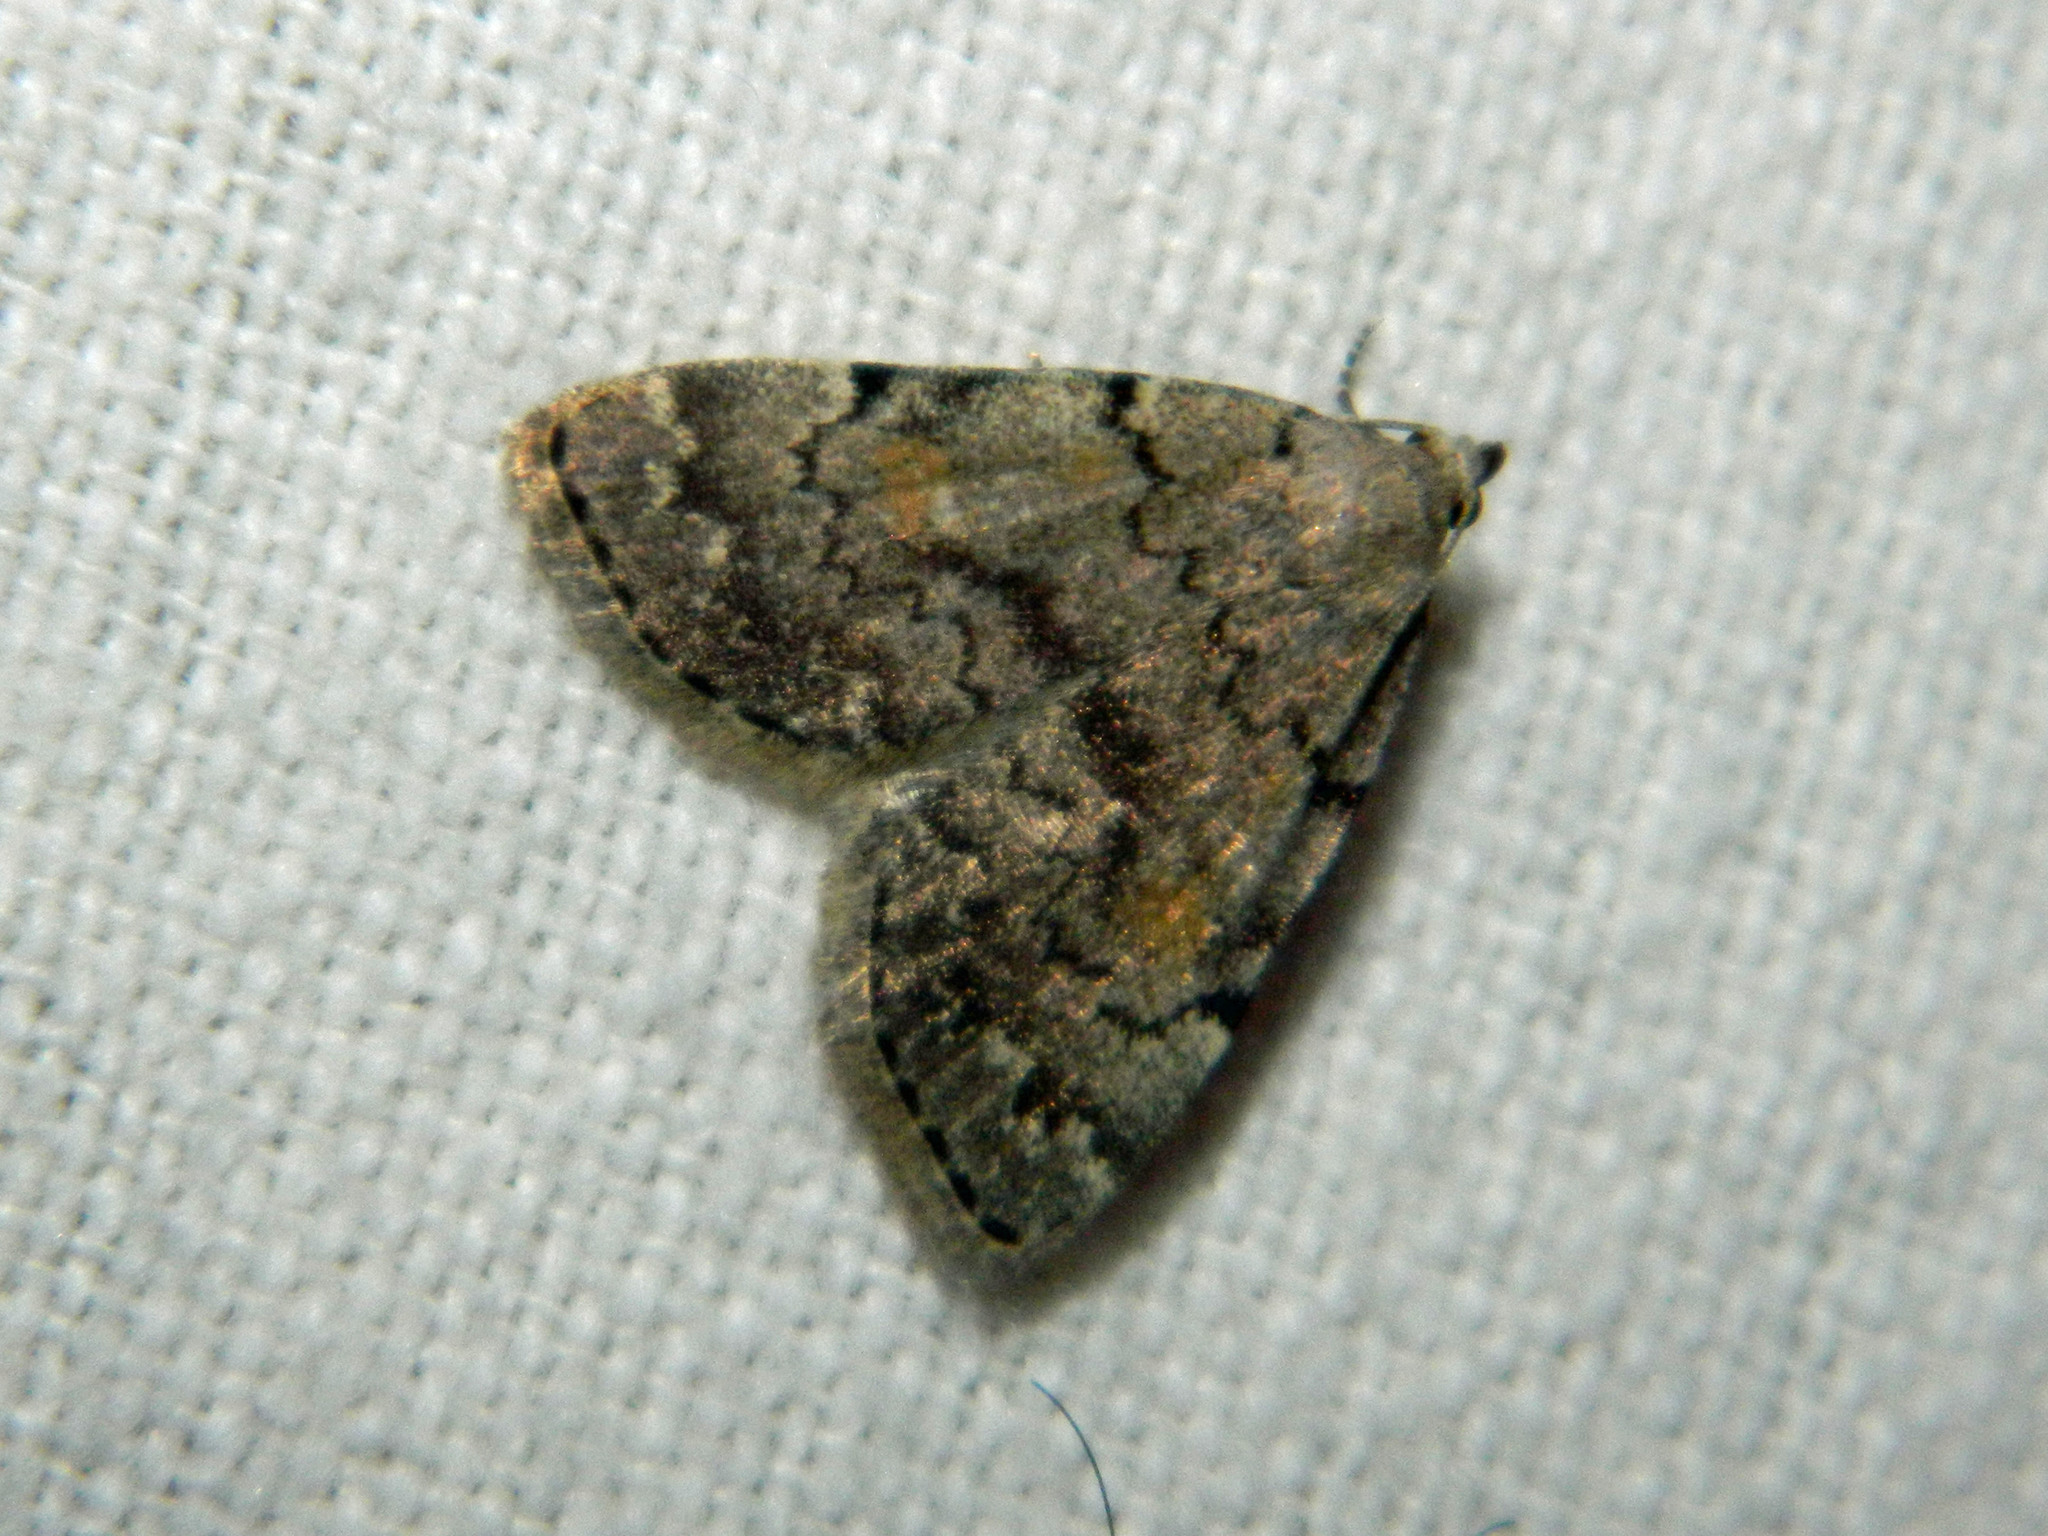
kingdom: Animalia
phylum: Arthropoda
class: Insecta
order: Lepidoptera
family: Erebidae
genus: Idia
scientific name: Idia aemula
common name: Common idia moth
